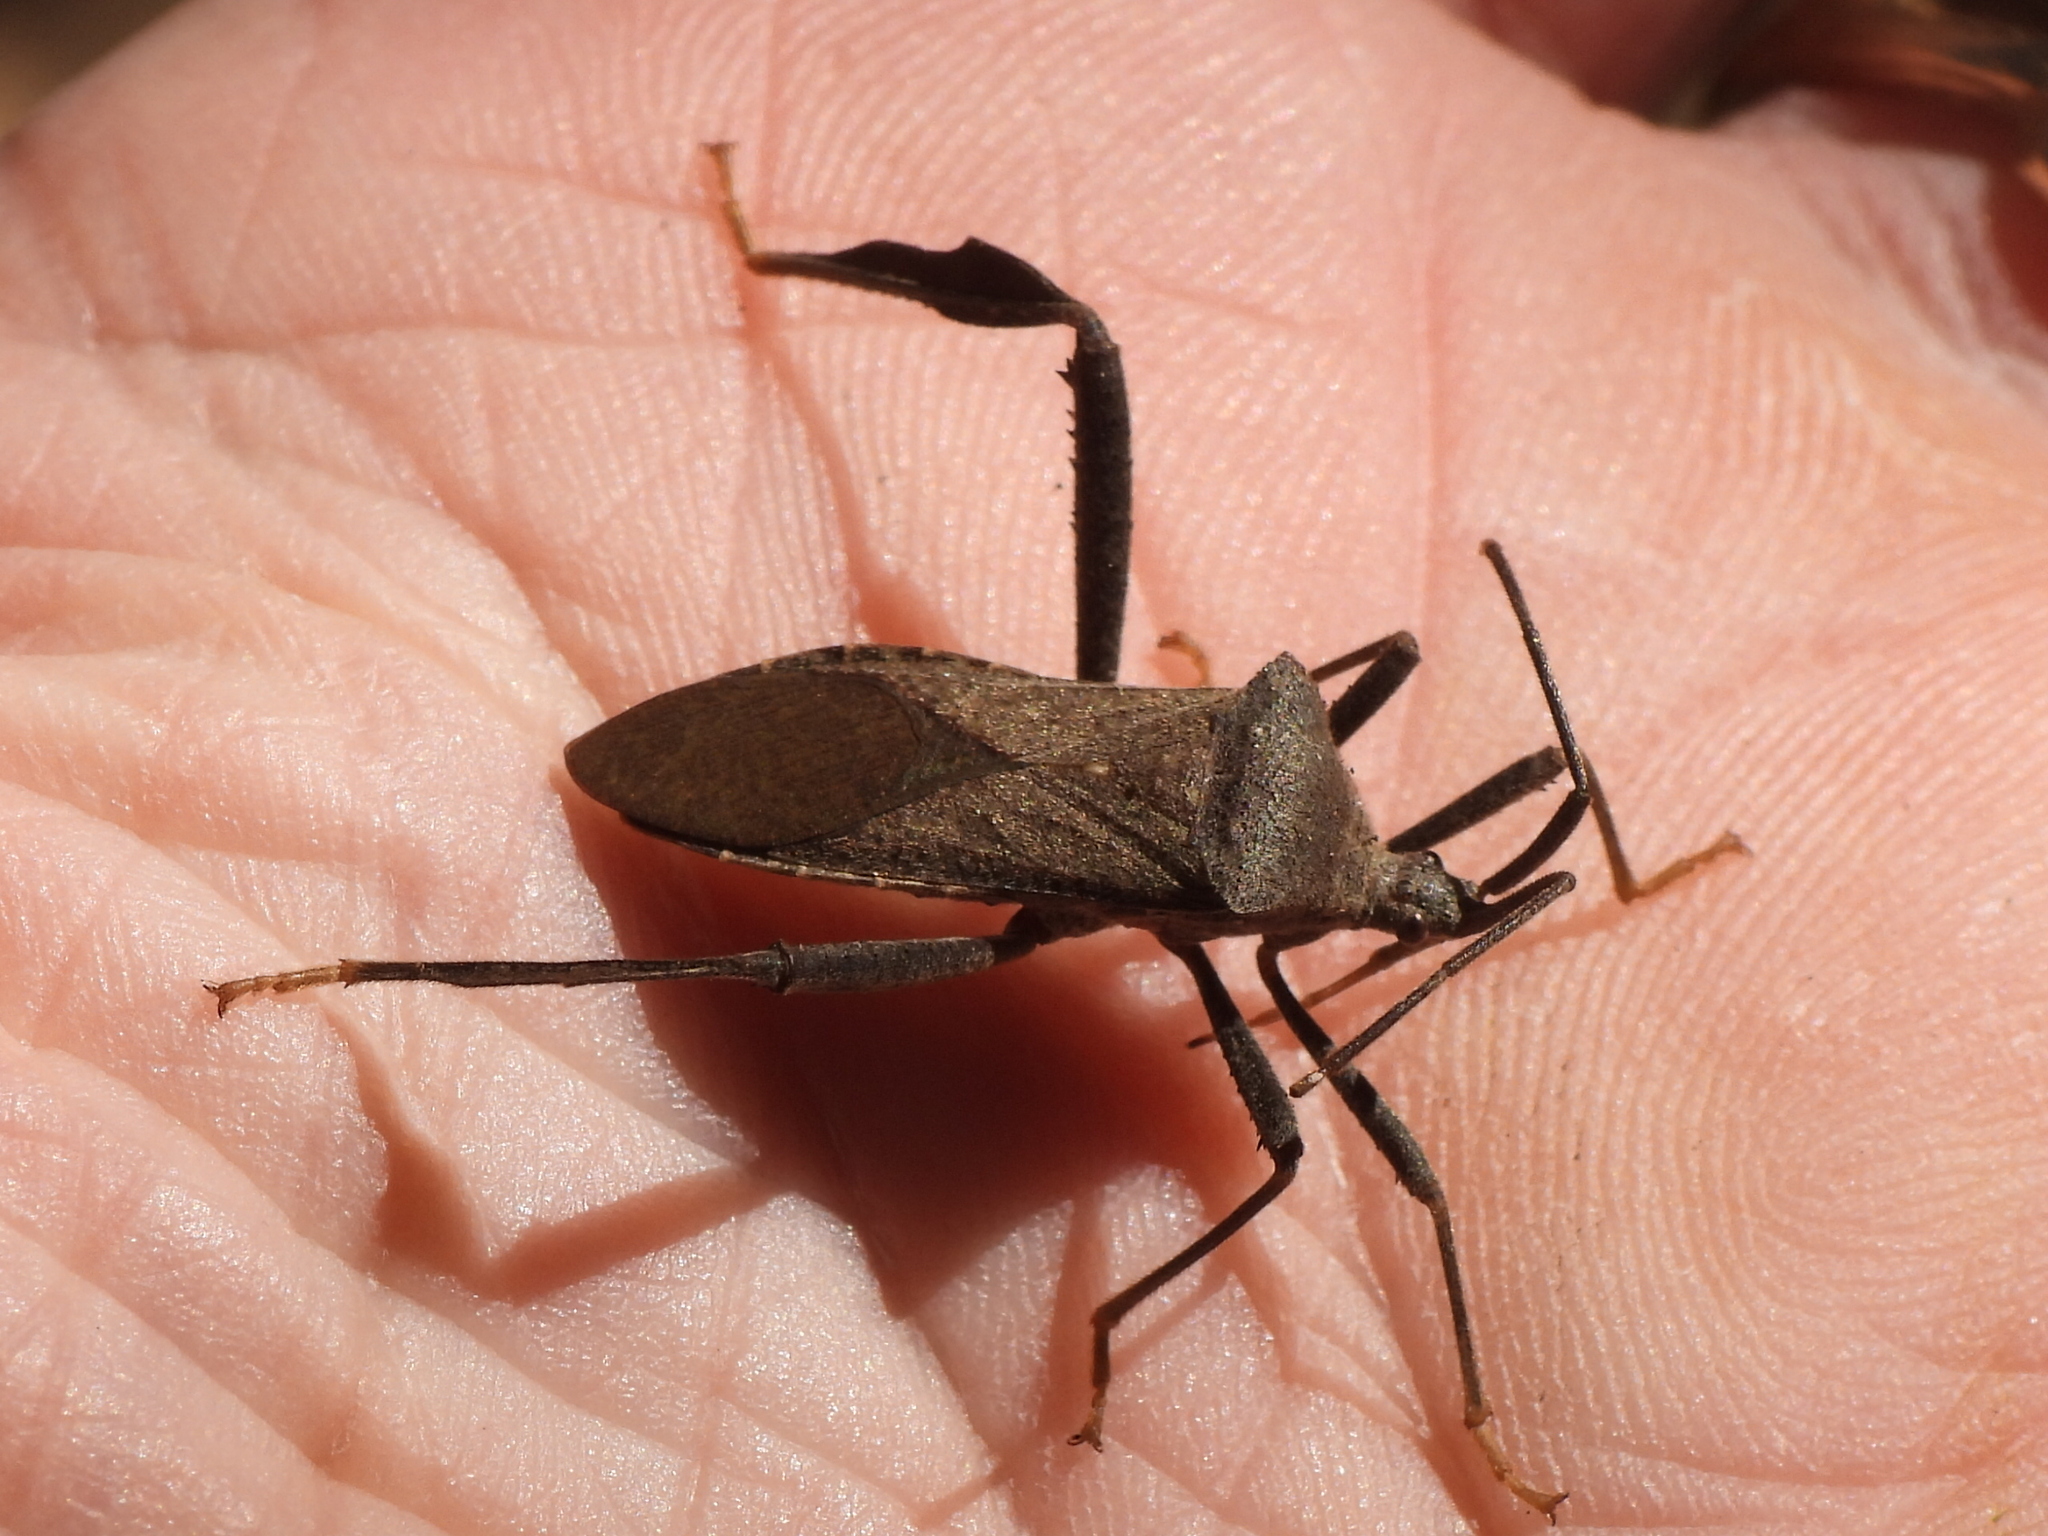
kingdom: Animalia
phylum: Arthropoda
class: Insecta
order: Hemiptera
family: Coreidae
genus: Acanthocephala
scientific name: Acanthocephala terminalis
